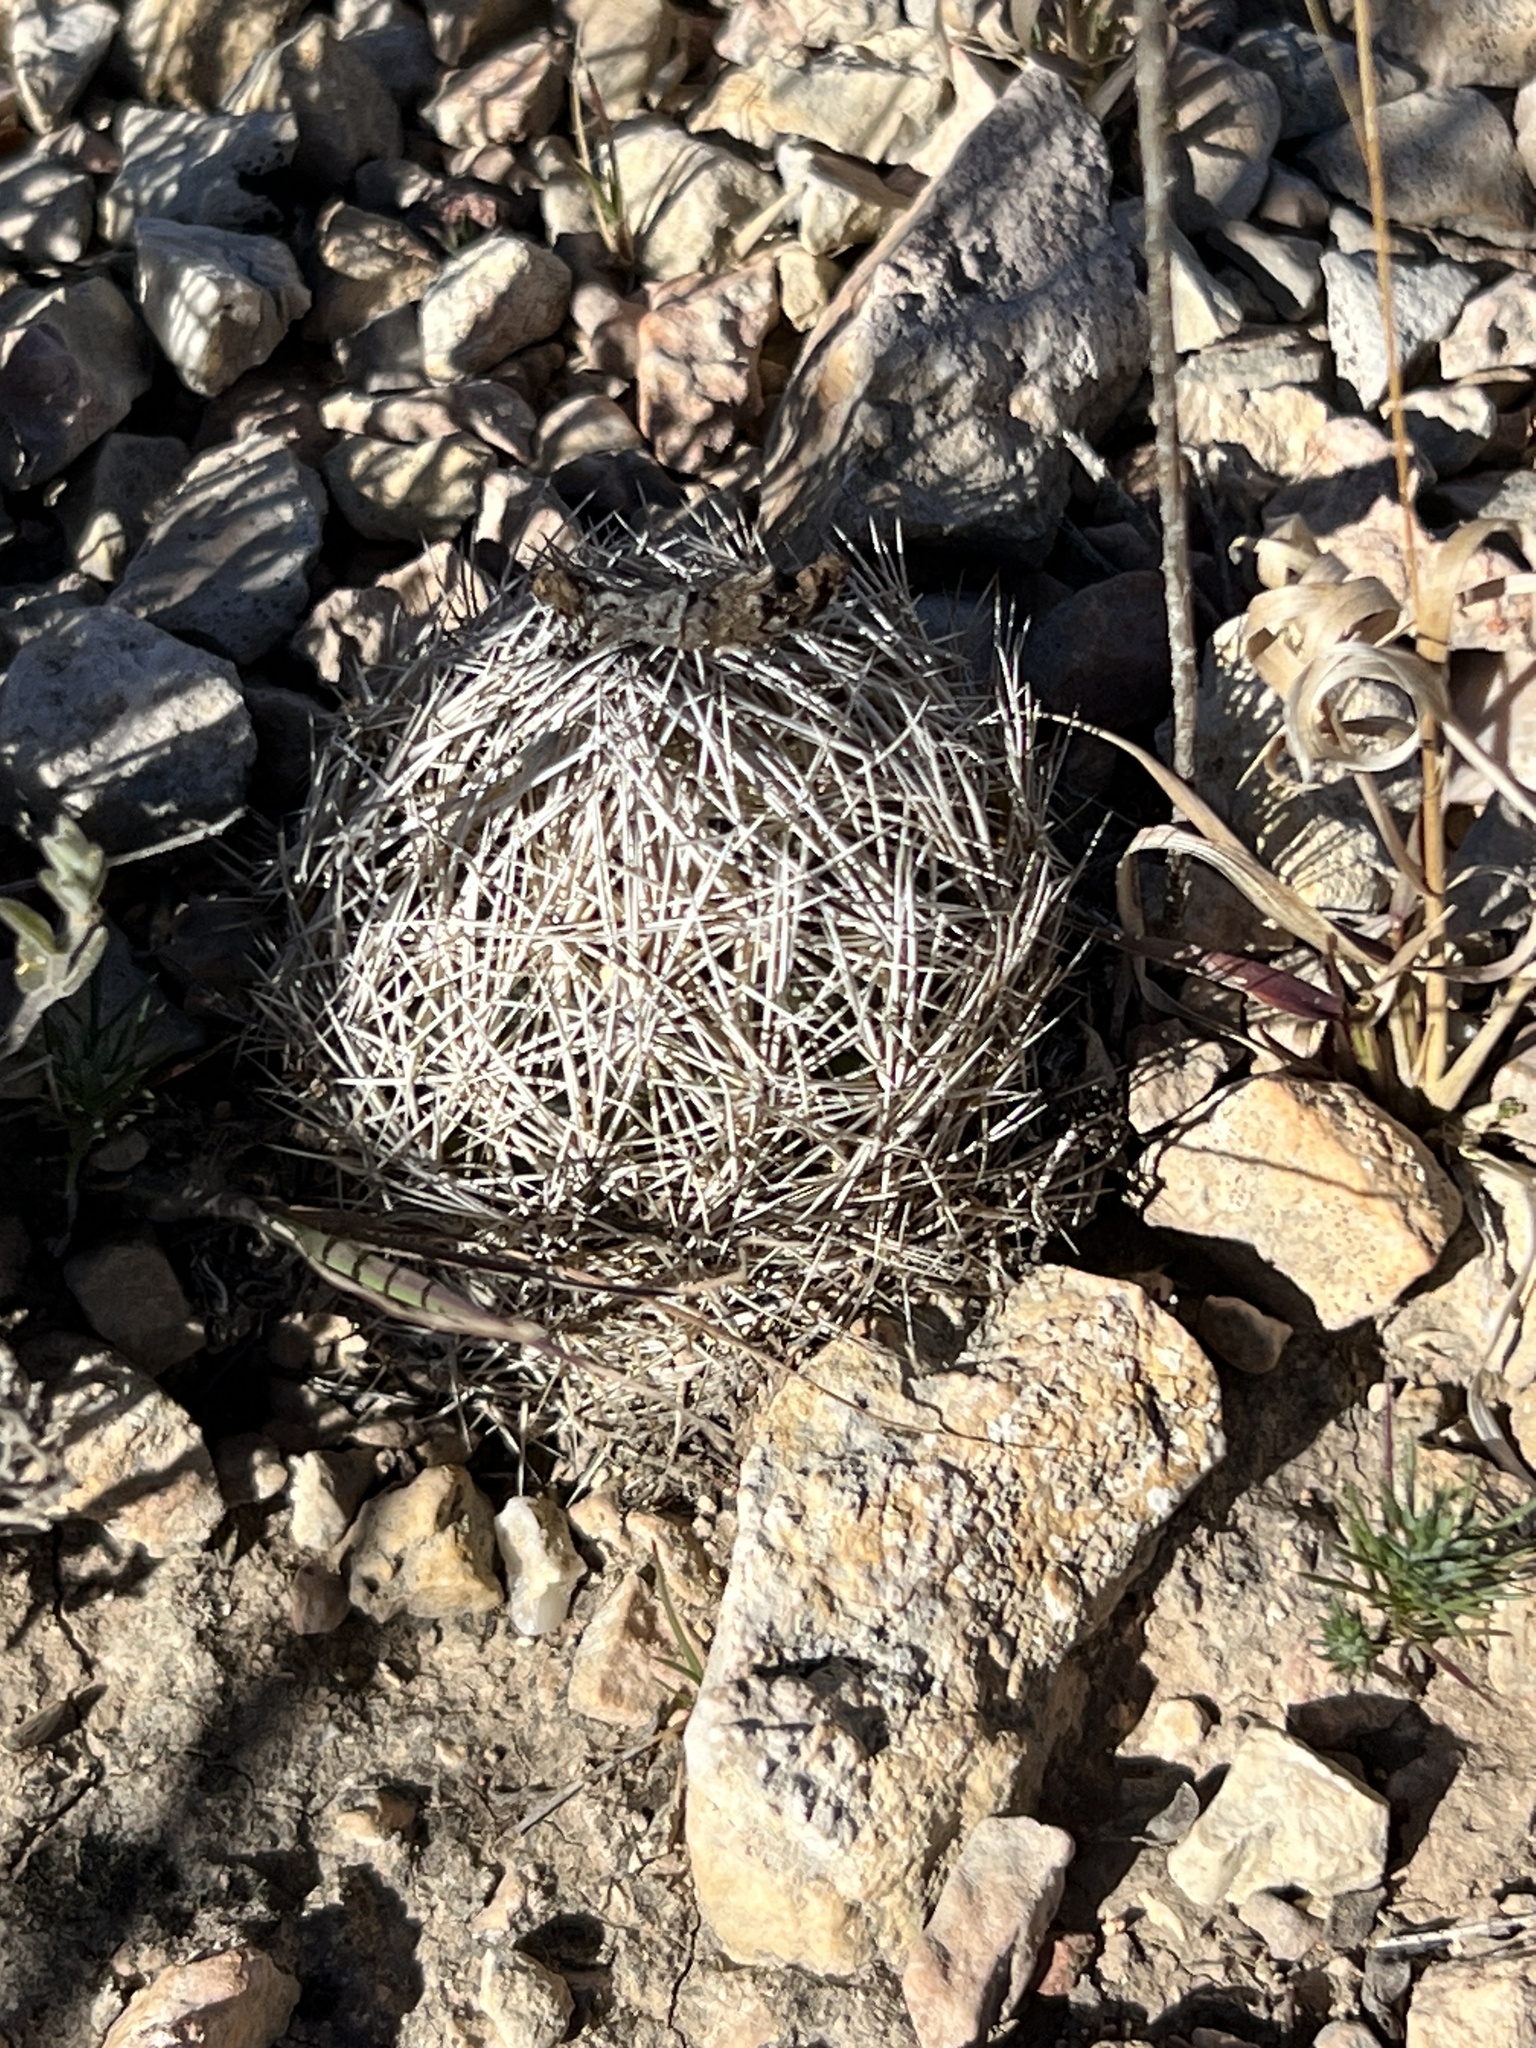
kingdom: Plantae
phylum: Tracheophyta
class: Magnoliopsida
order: Caryophyllales
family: Cactaceae
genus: Coryphantha
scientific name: Coryphantha echinus
